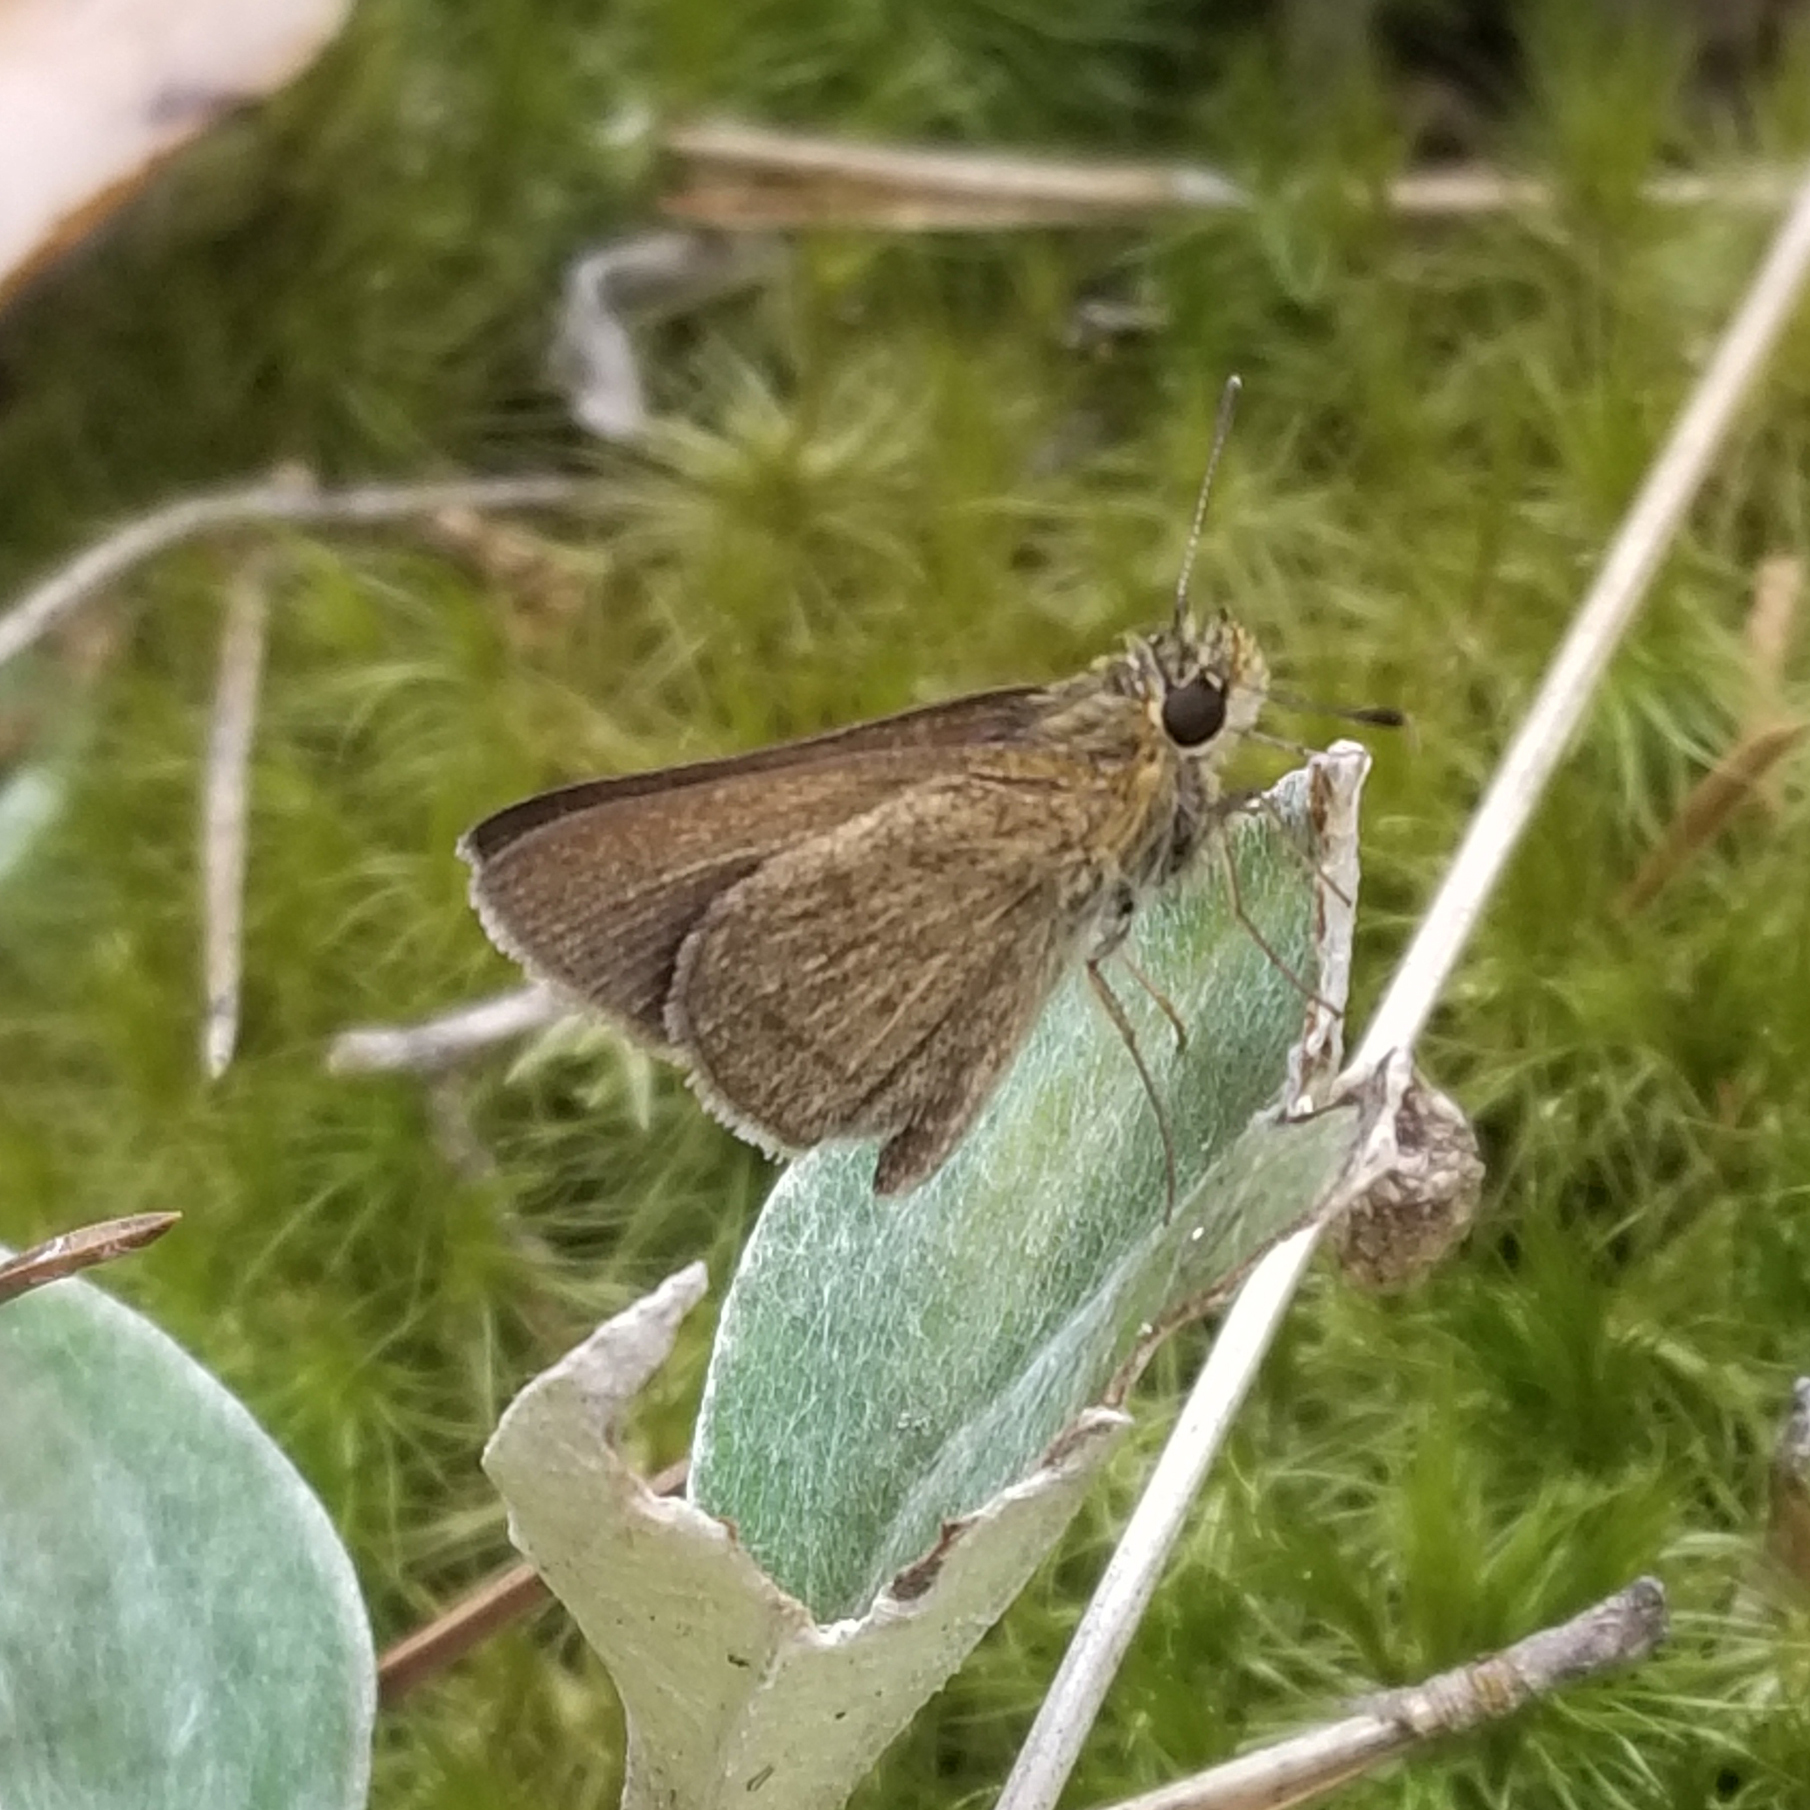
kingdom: Animalia
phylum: Arthropoda
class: Insecta
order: Lepidoptera
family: Hesperiidae
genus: Nastra
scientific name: Nastra lherminier
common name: Swarthy skipper
